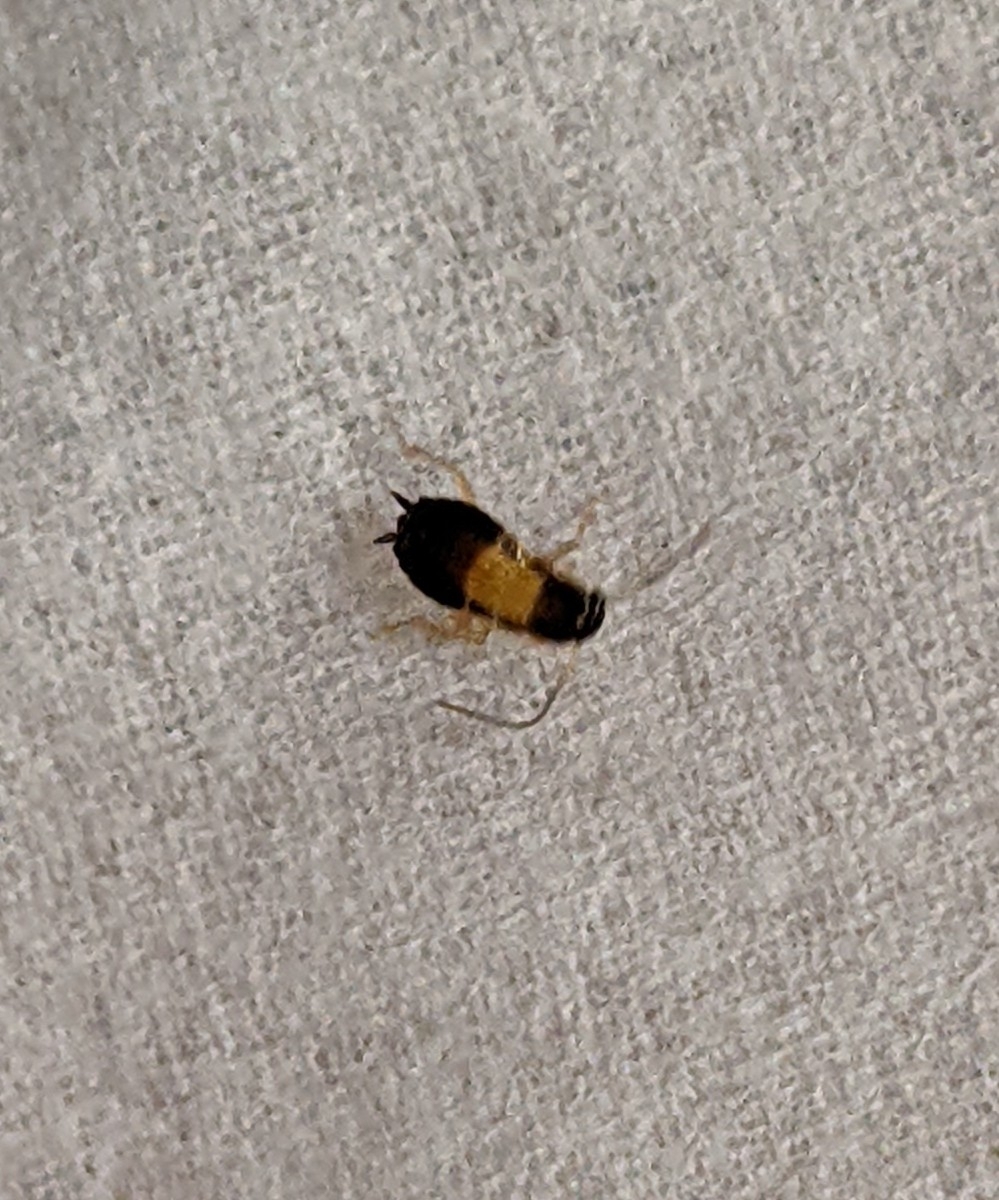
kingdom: Animalia
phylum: Arthropoda
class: Insecta
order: Blattodea
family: Ectobiidae
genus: Blattella
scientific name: Blattella germanica
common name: German cockroach
